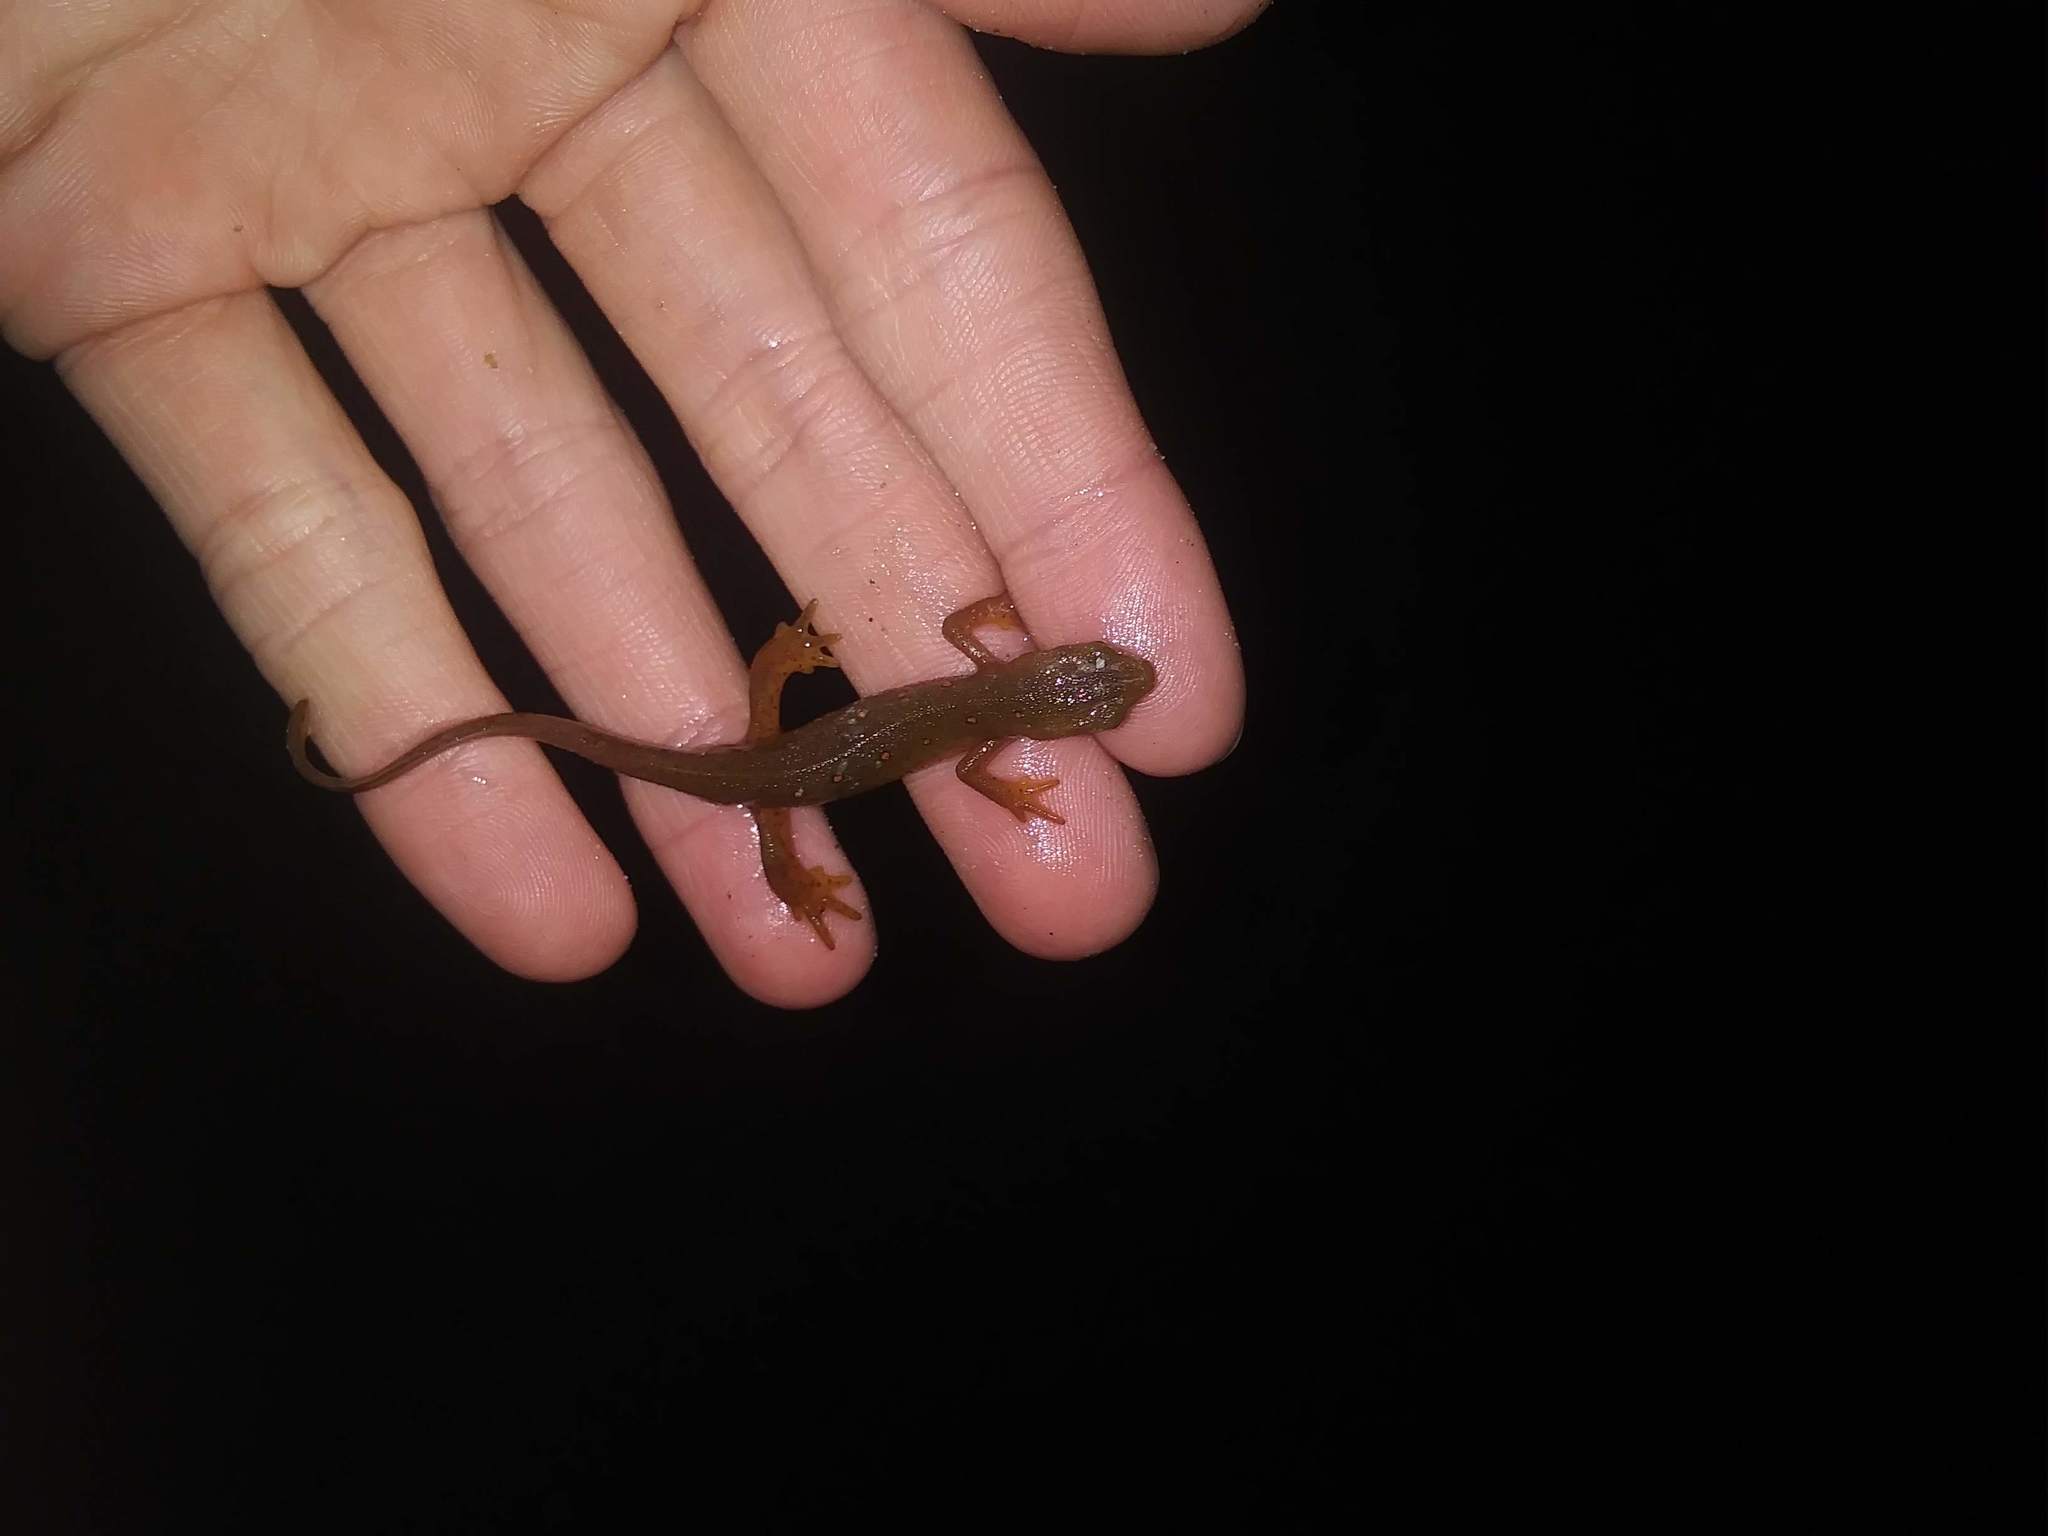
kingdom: Animalia
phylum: Chordata
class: Amphibia
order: Caudata
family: Salamandridae
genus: Notophthalmus
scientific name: Notophthalmus viridescens
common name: Eastern newt
